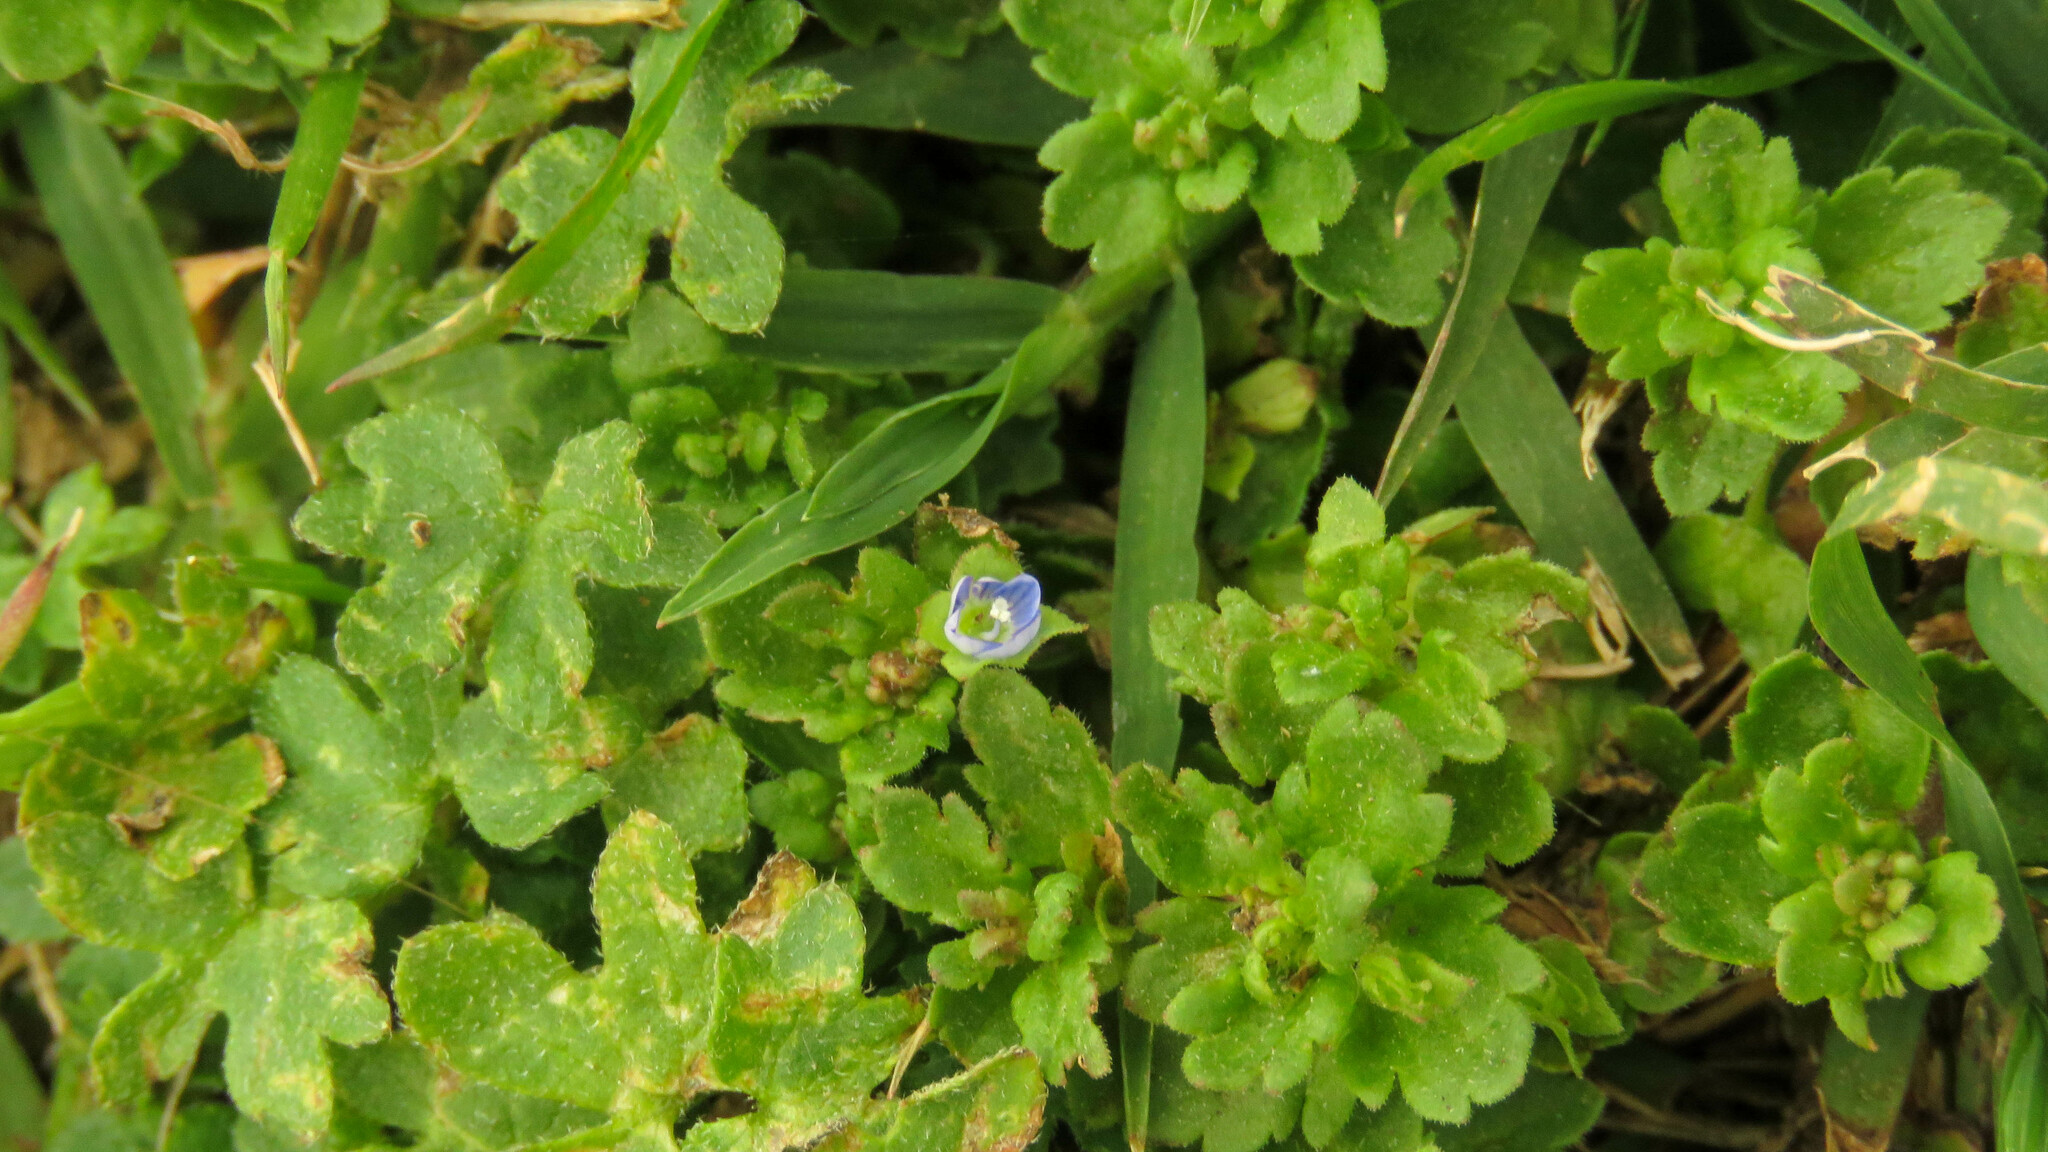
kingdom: Plantae
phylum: Tracheophyta
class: Magnoliopsida
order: Lamiales
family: Plantaginaceae
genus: Veronica
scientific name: Veronica polita
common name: Grey field-speedwell
